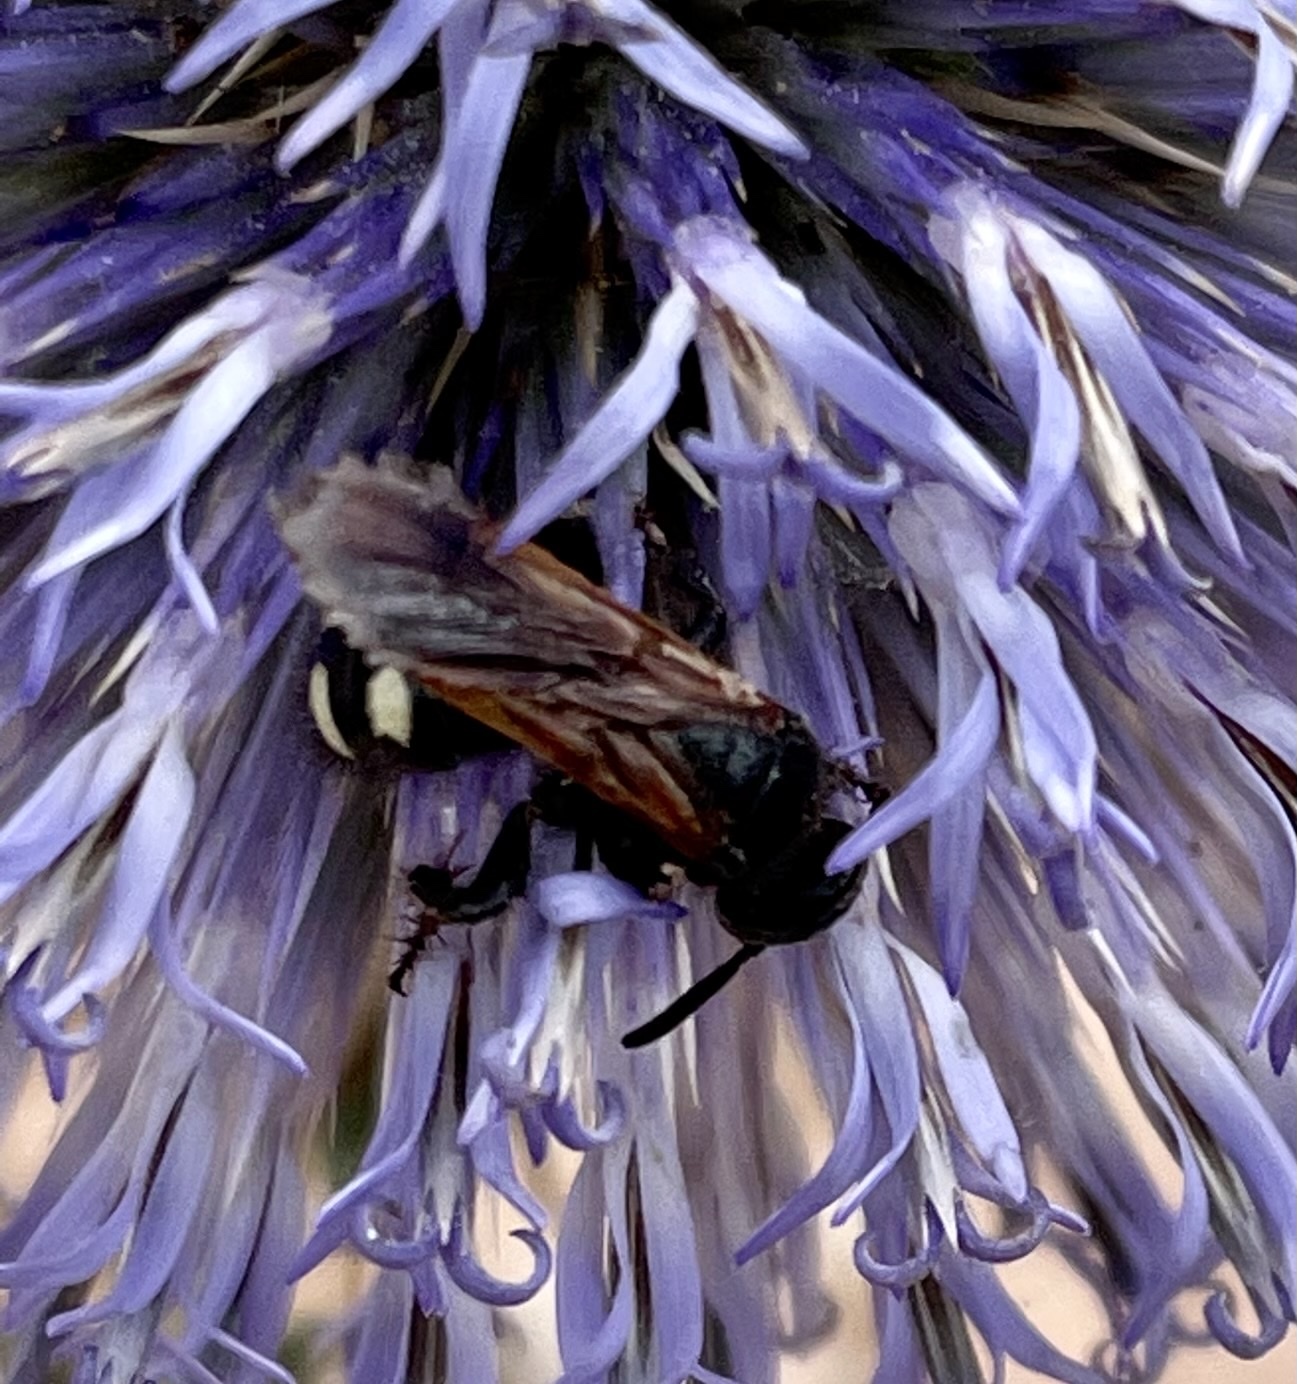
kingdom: Animalia
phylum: Arthropoda
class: Insecta
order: Hymenoptera
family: Vespidae
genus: Vespa
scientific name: Vespa sexmaculata
